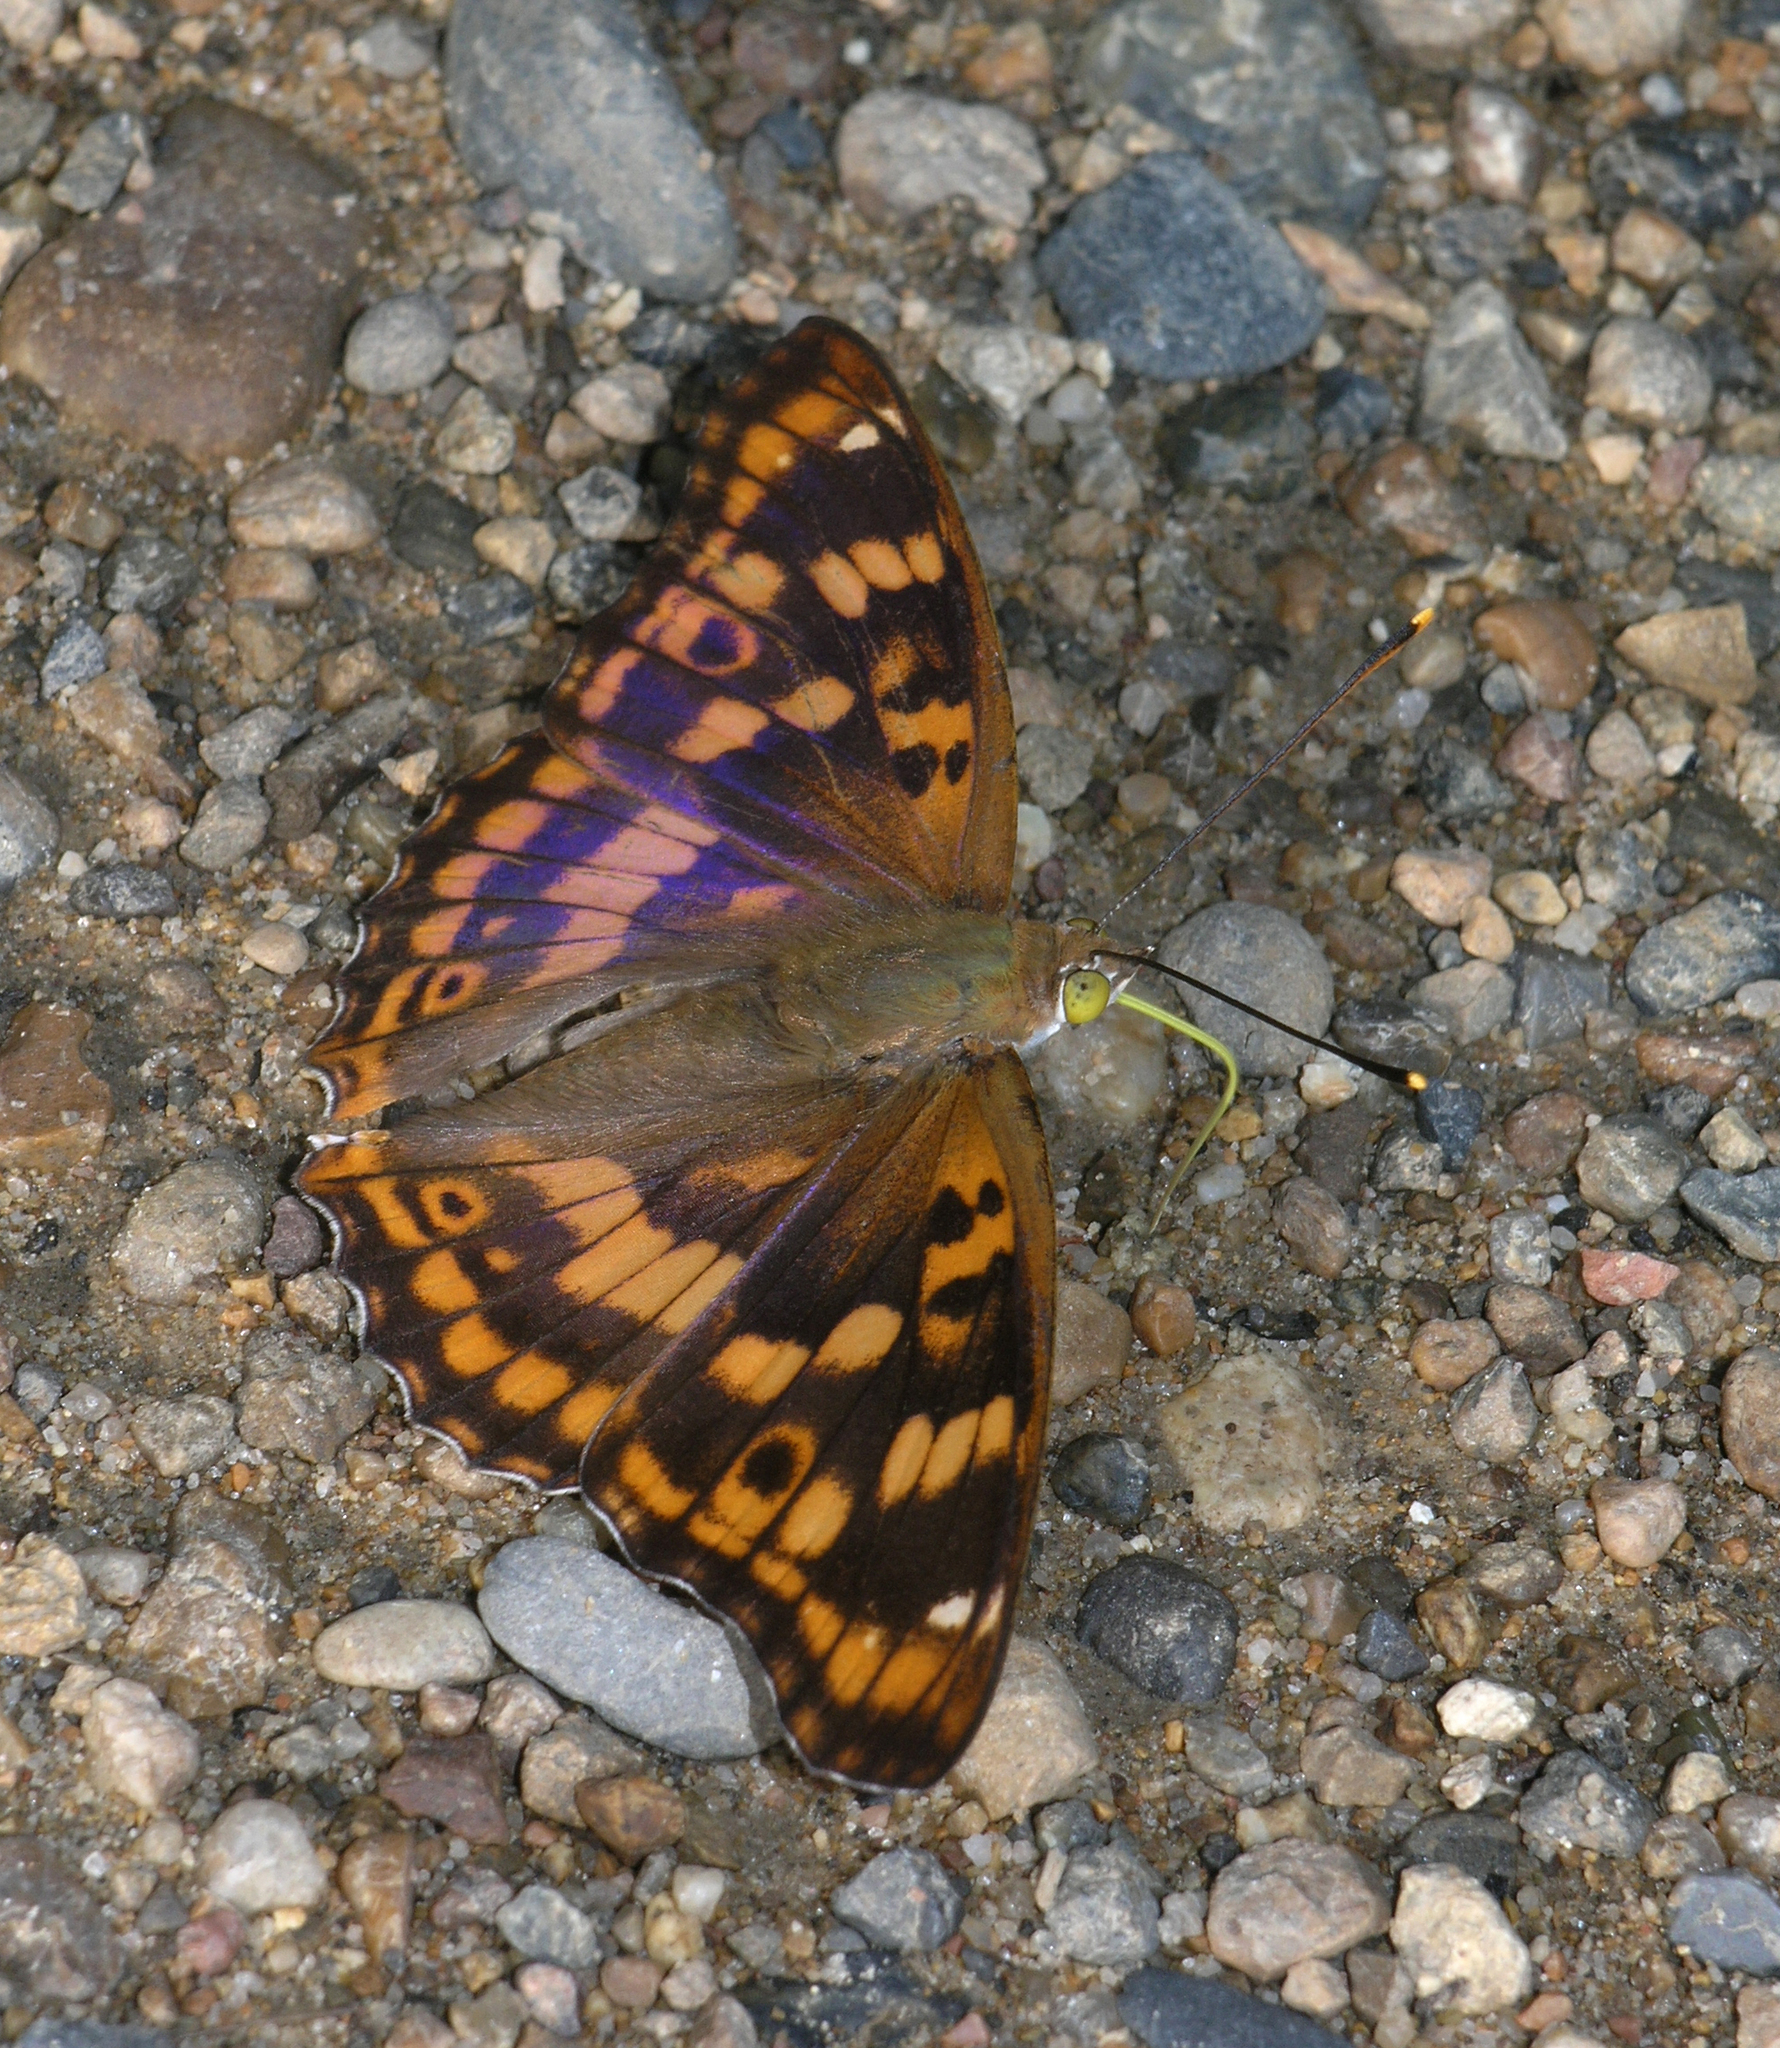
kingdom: Animalia
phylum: Arthropoda
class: Insecta
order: Lepidoptera
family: Nymphalidae
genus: Apatura
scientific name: Apatura ilia
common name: Lesser purple emperor
